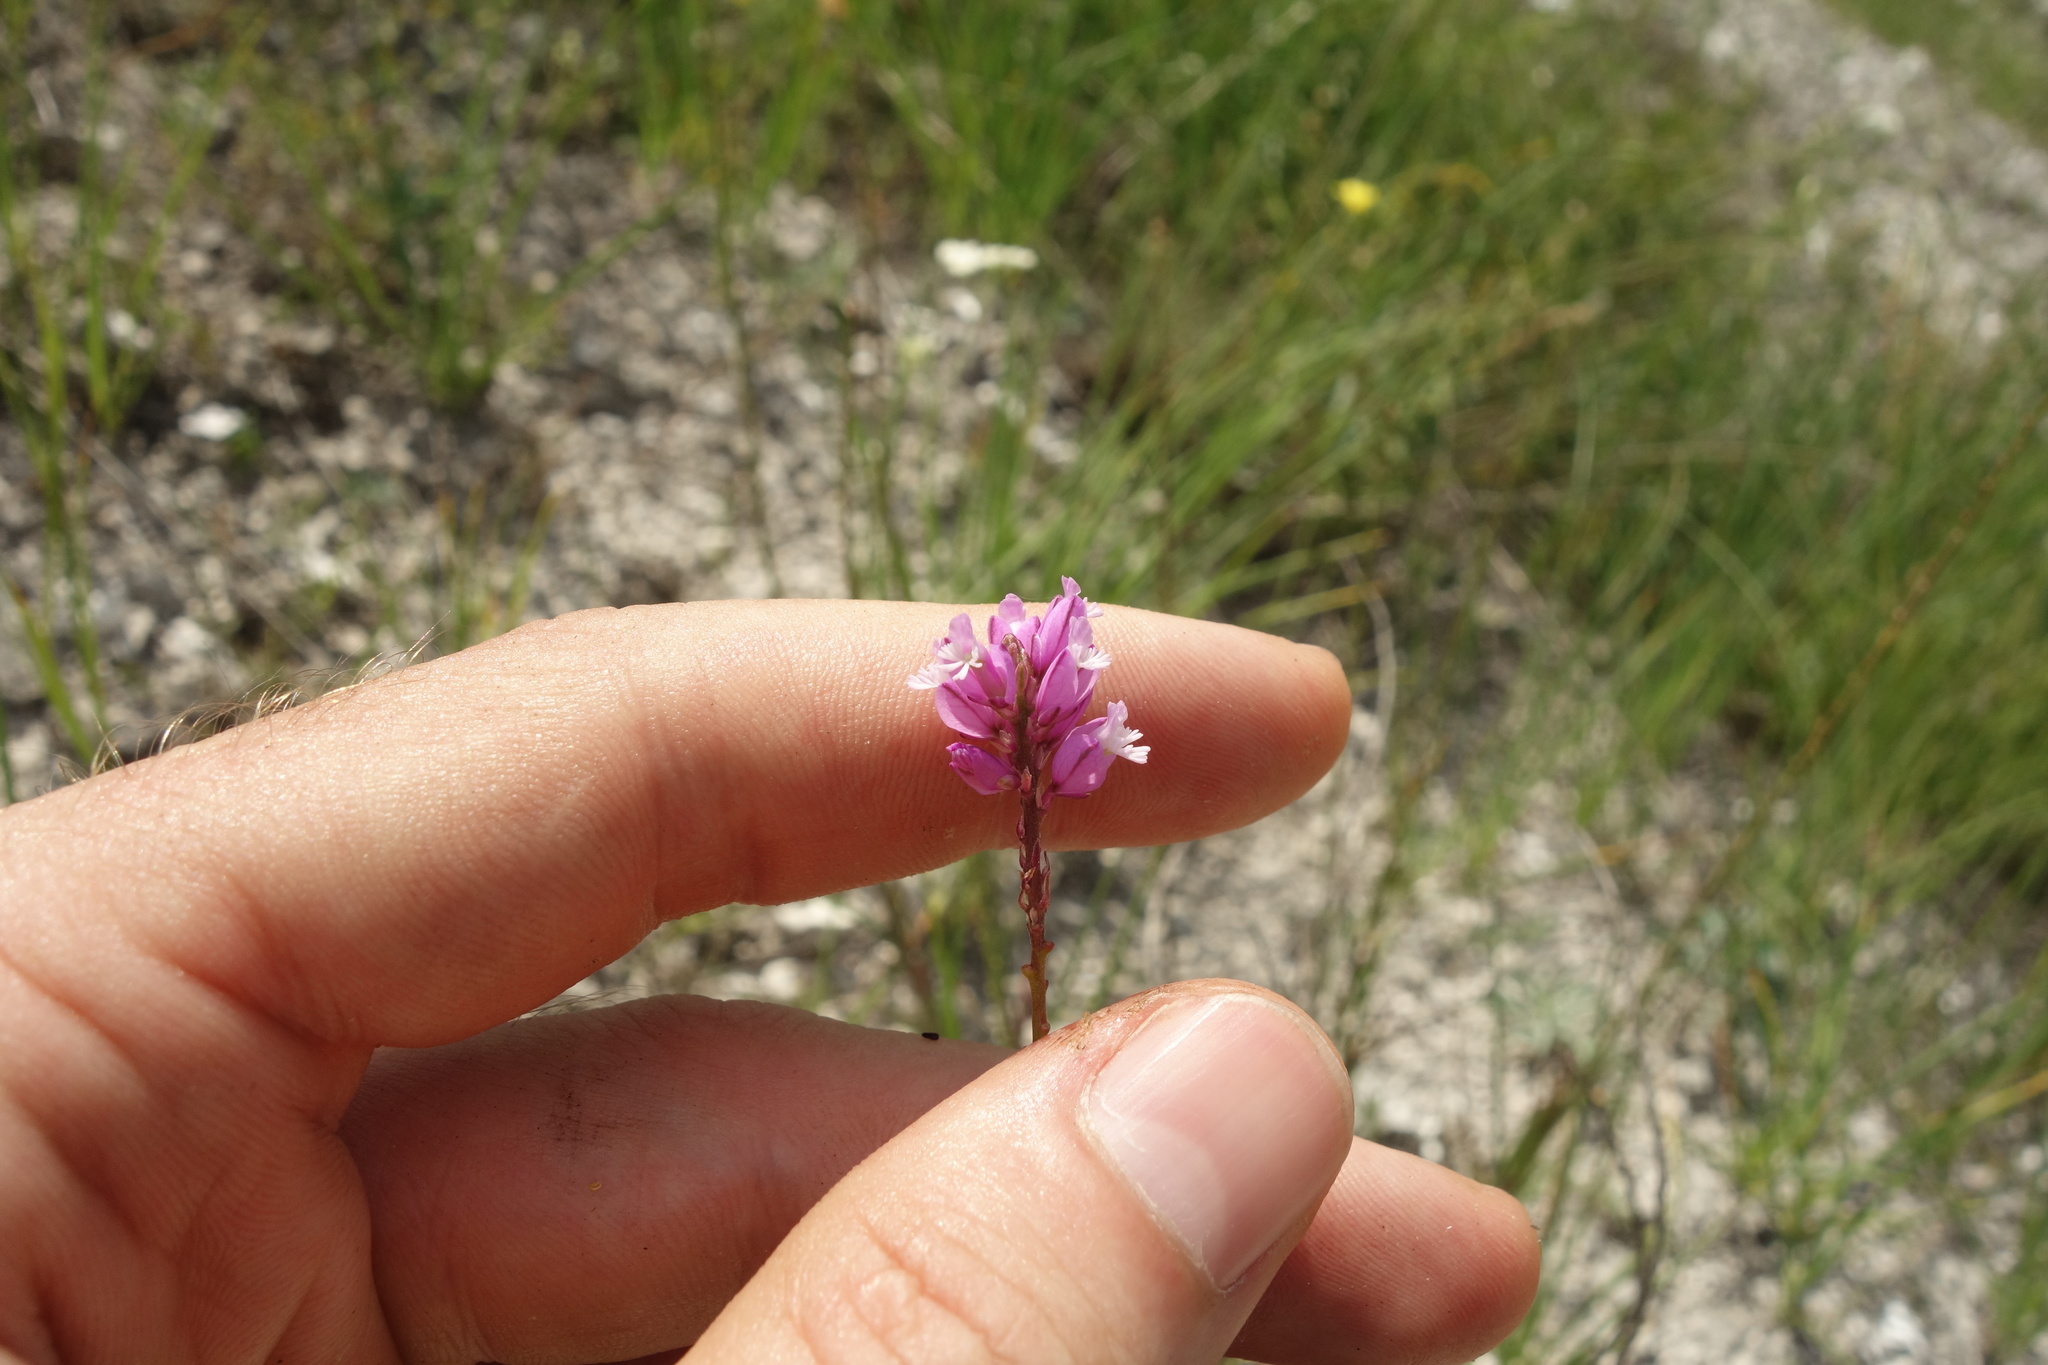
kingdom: Plantae
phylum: Tracheophyta
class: Magnoliopsida
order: Fabales
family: Polygalaceae
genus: Polygala
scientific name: Polygala nicaeensis
